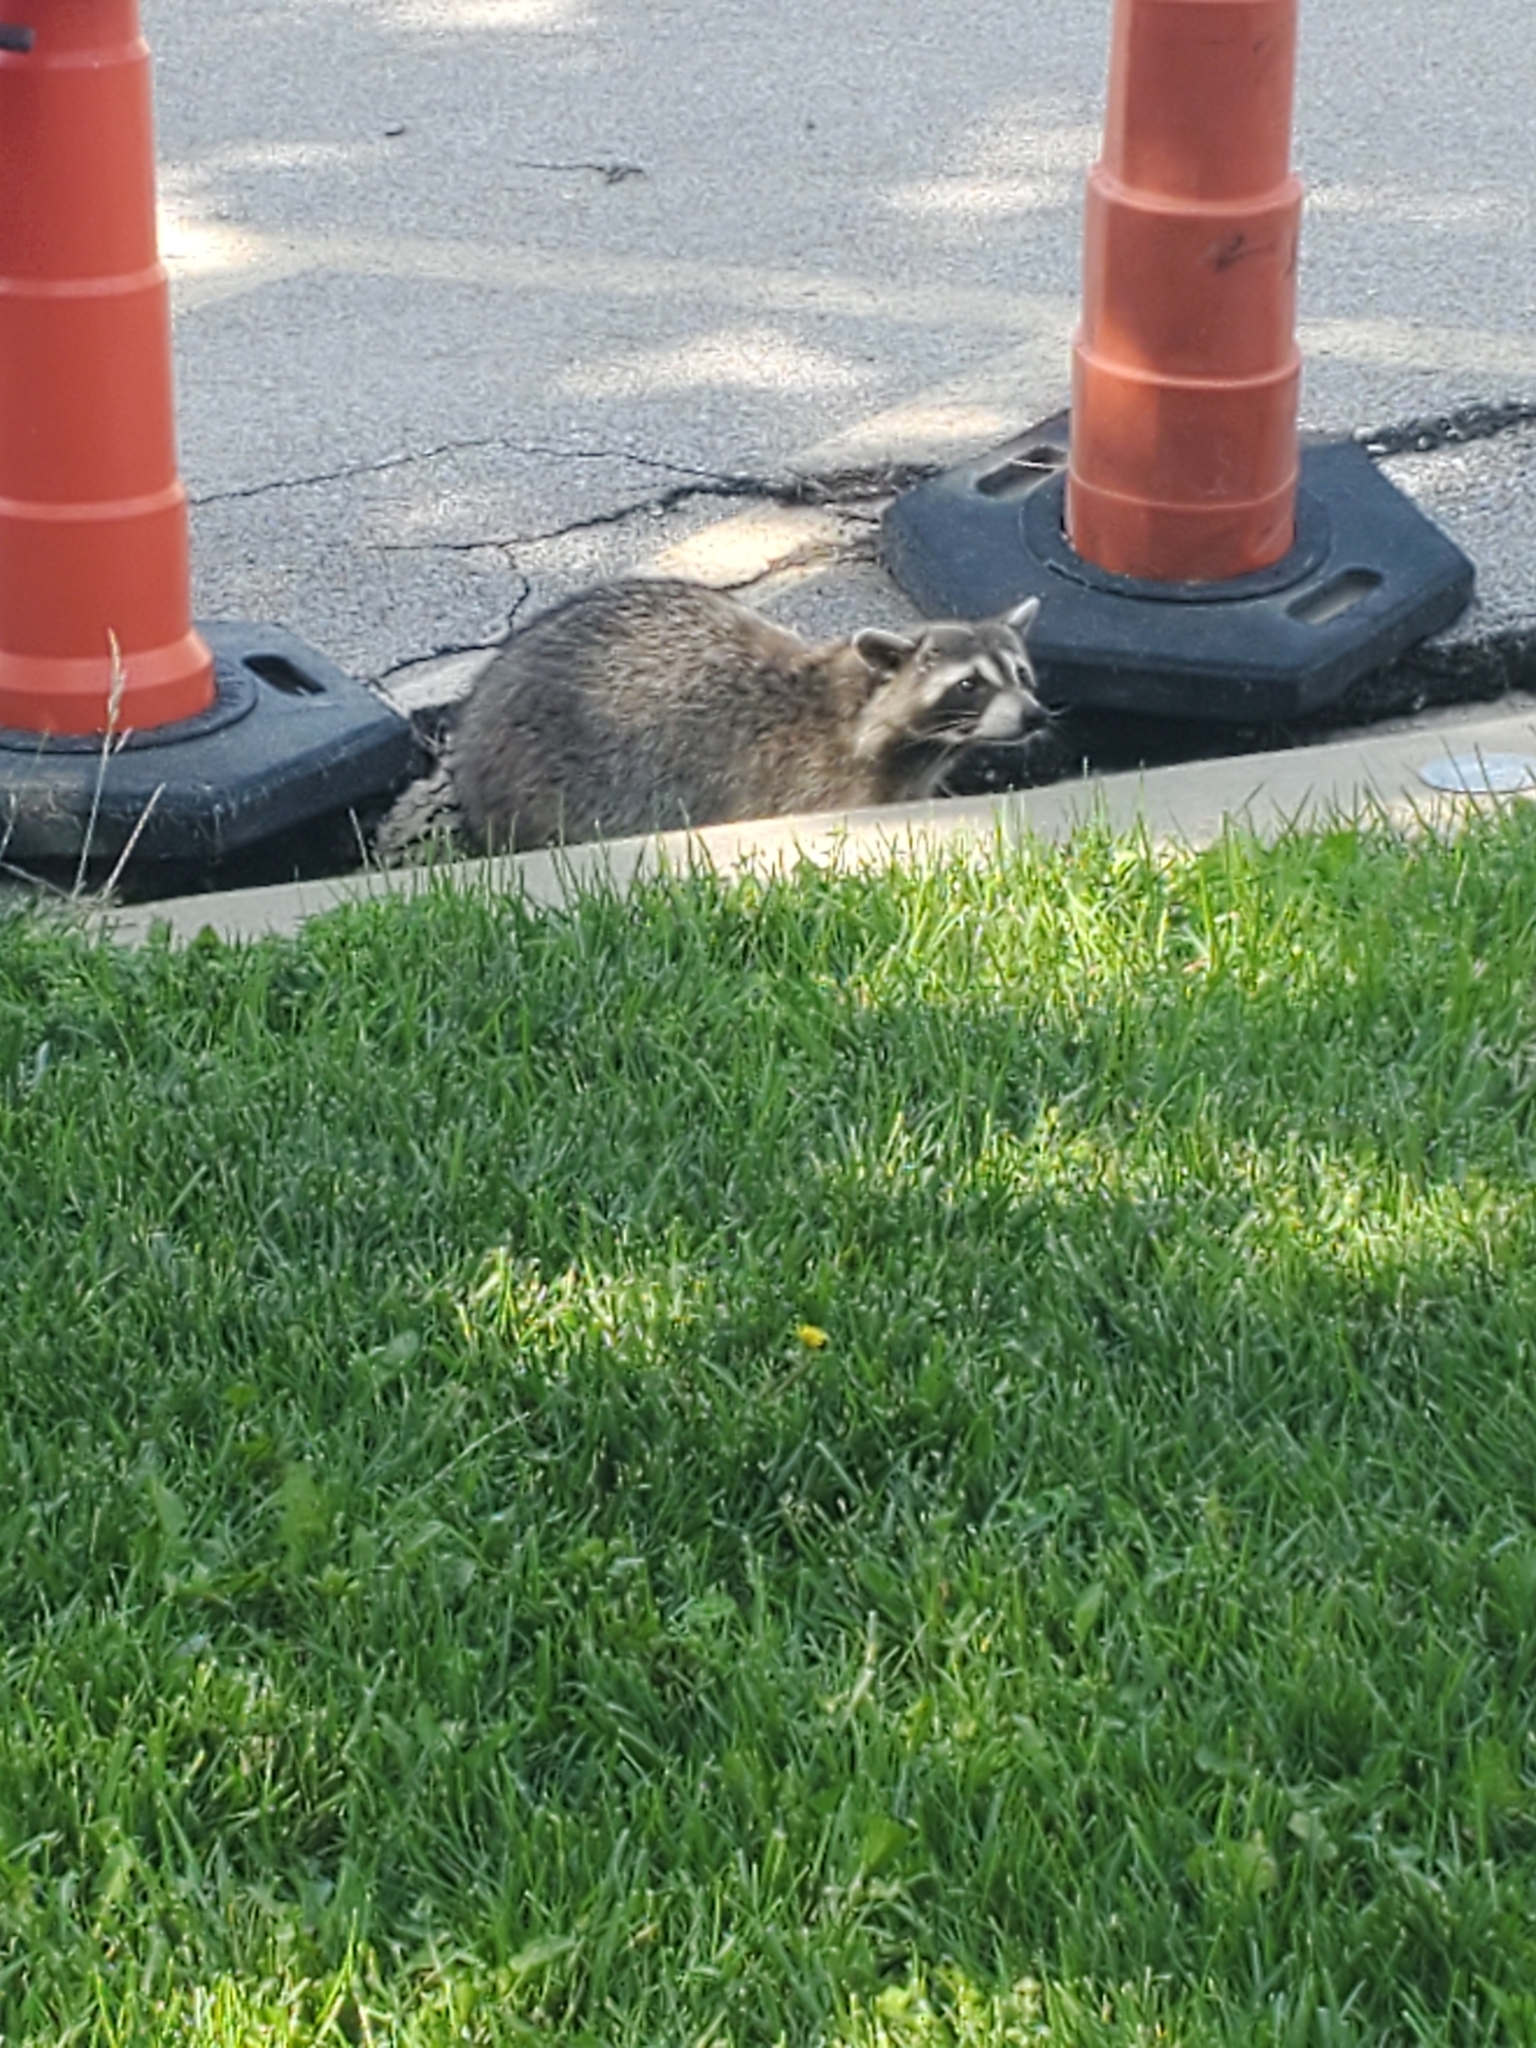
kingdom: Animalia
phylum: Chordata
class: Mammalia
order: Carnivora
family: Procyonidae
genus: Procyon
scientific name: Procyon lotor
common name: Raccoon
